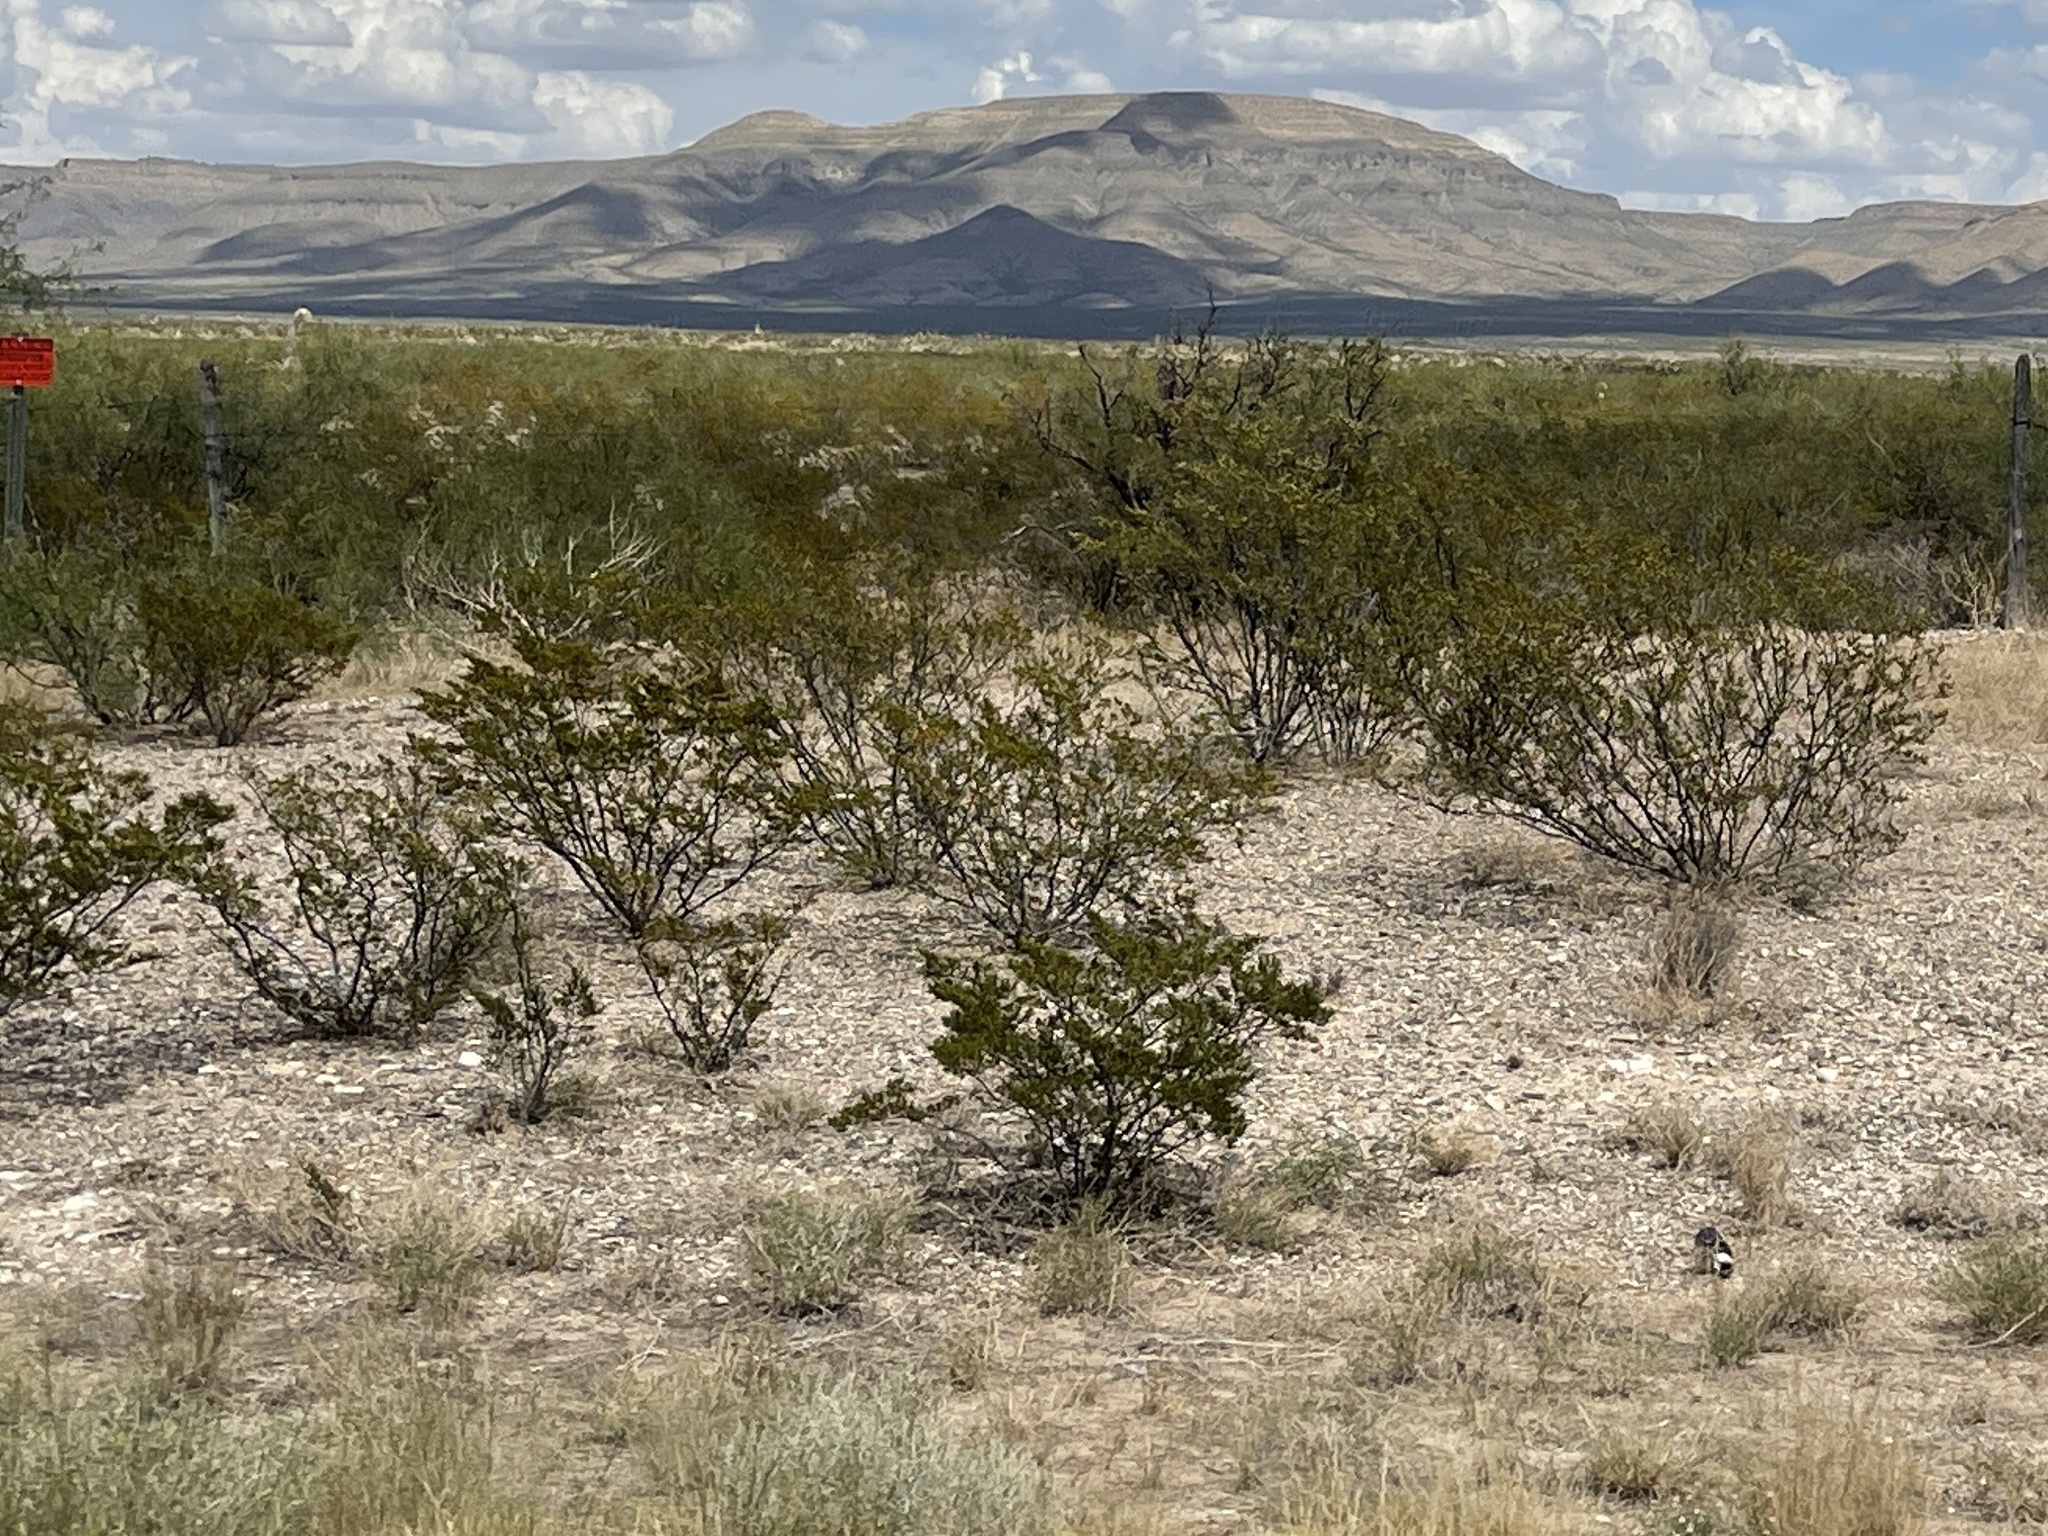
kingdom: Plantae
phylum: Tracheophyta
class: Magnoliopsida
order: Zygophyllales
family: Zygophyllaceae
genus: Larrea
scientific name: Larrea tridentata
